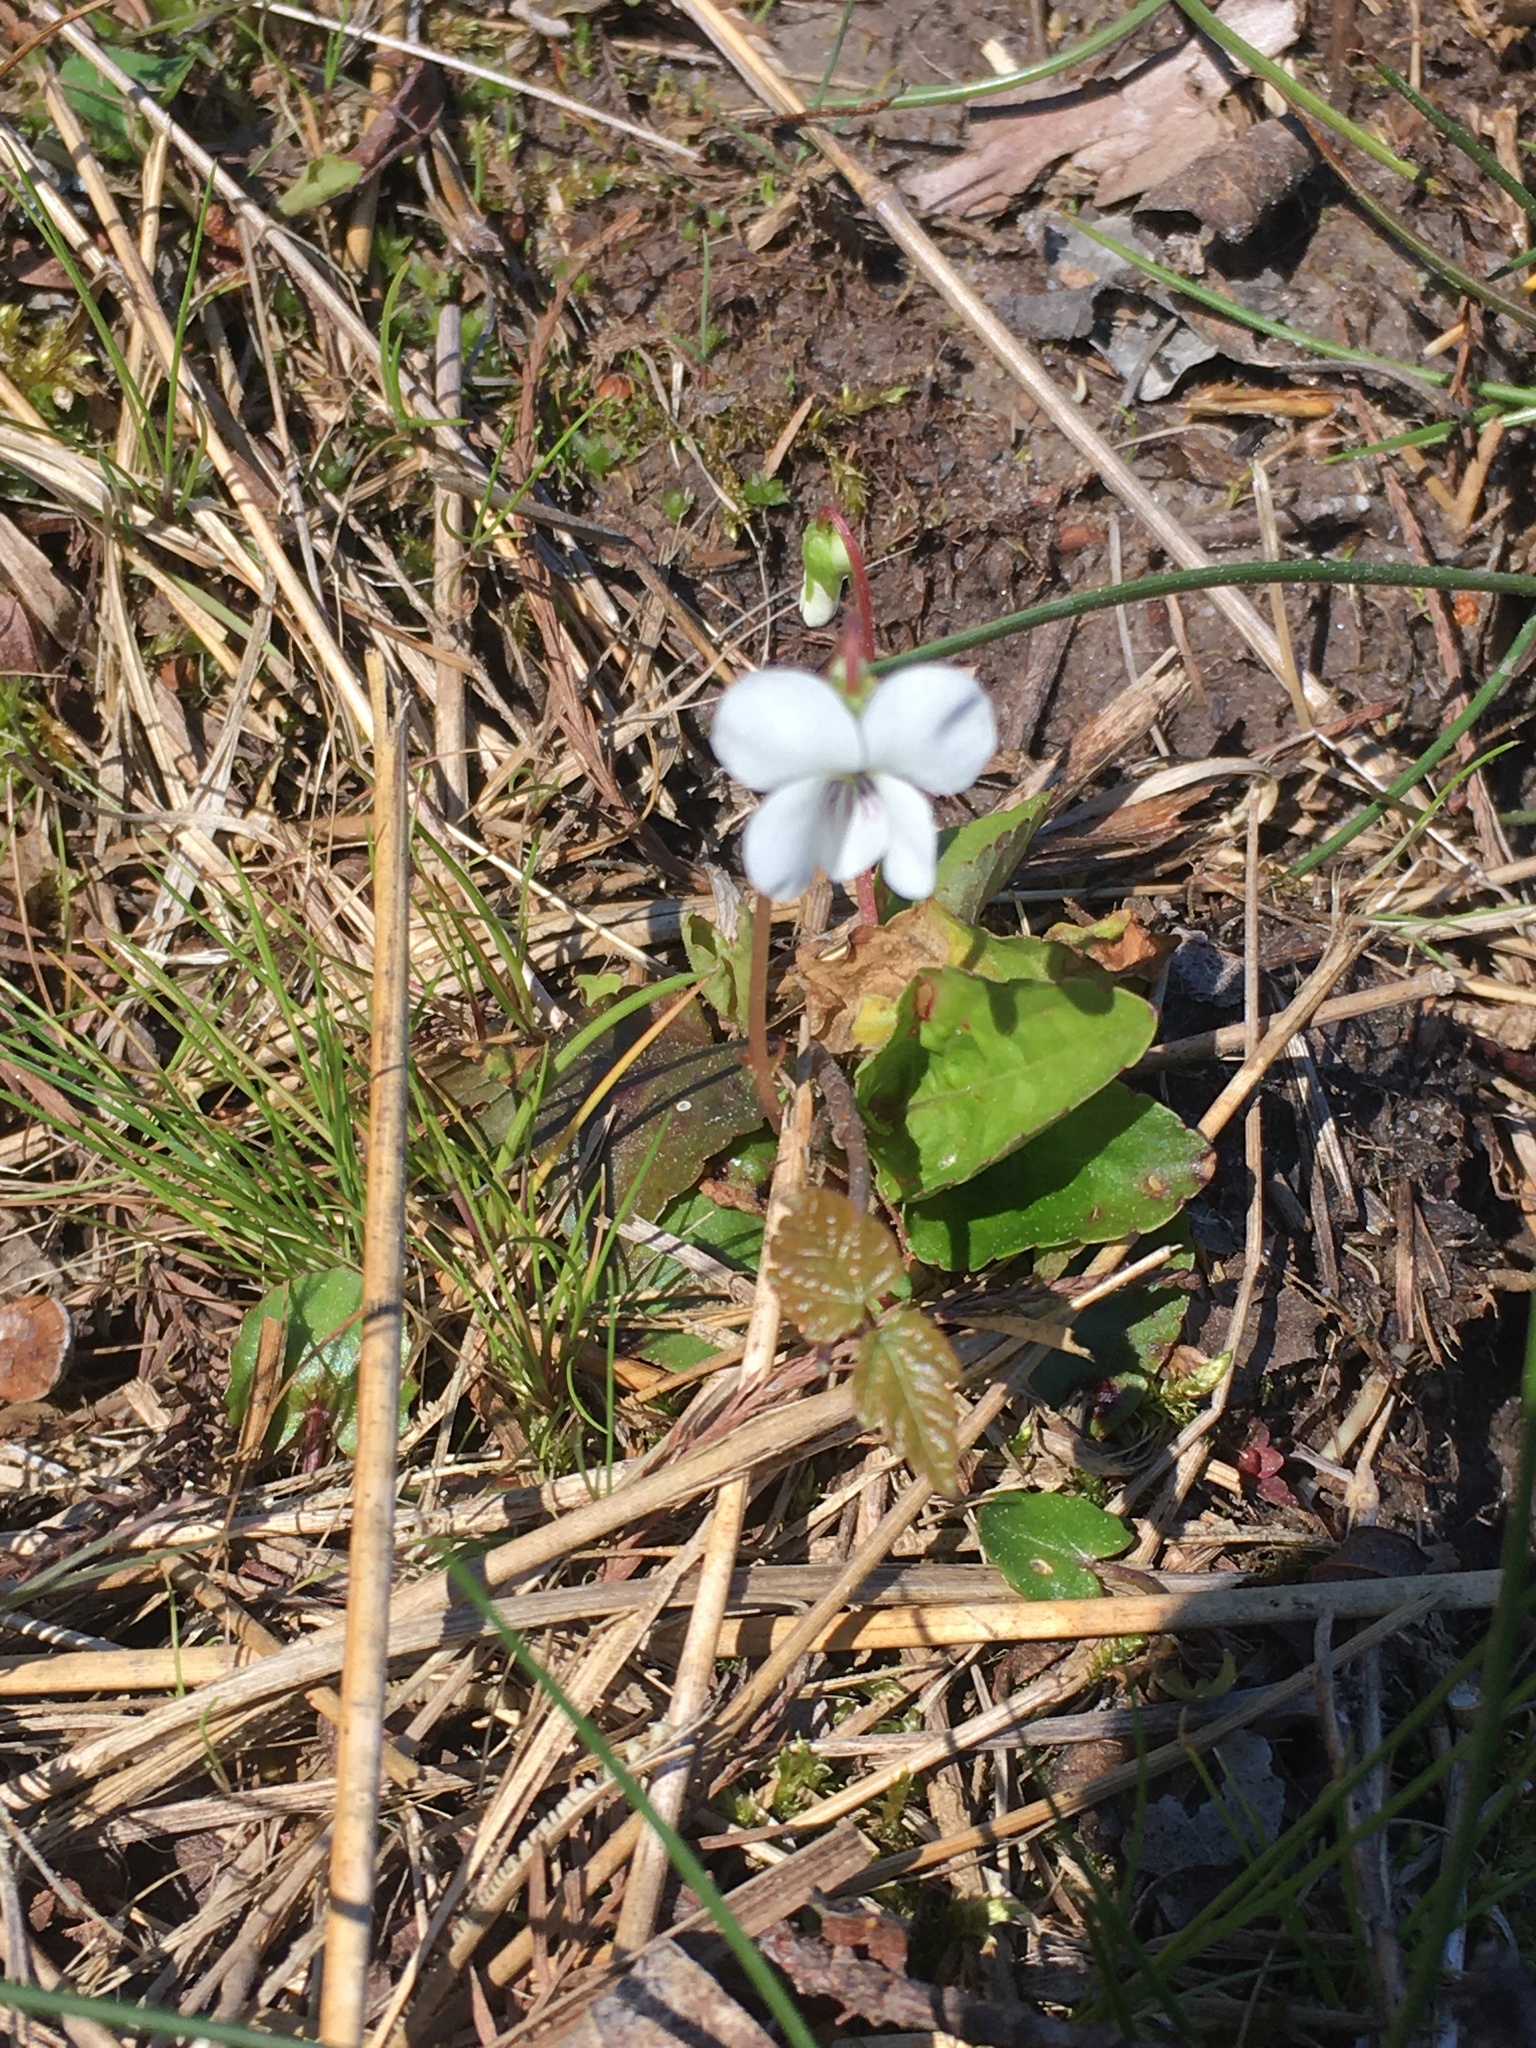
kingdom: Plantae
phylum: Tracheophyta
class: Magnoliopsida
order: Malpighiales
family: Violaceae
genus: Viola
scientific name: Viola primulifolia
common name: Primrose-leaf violet
